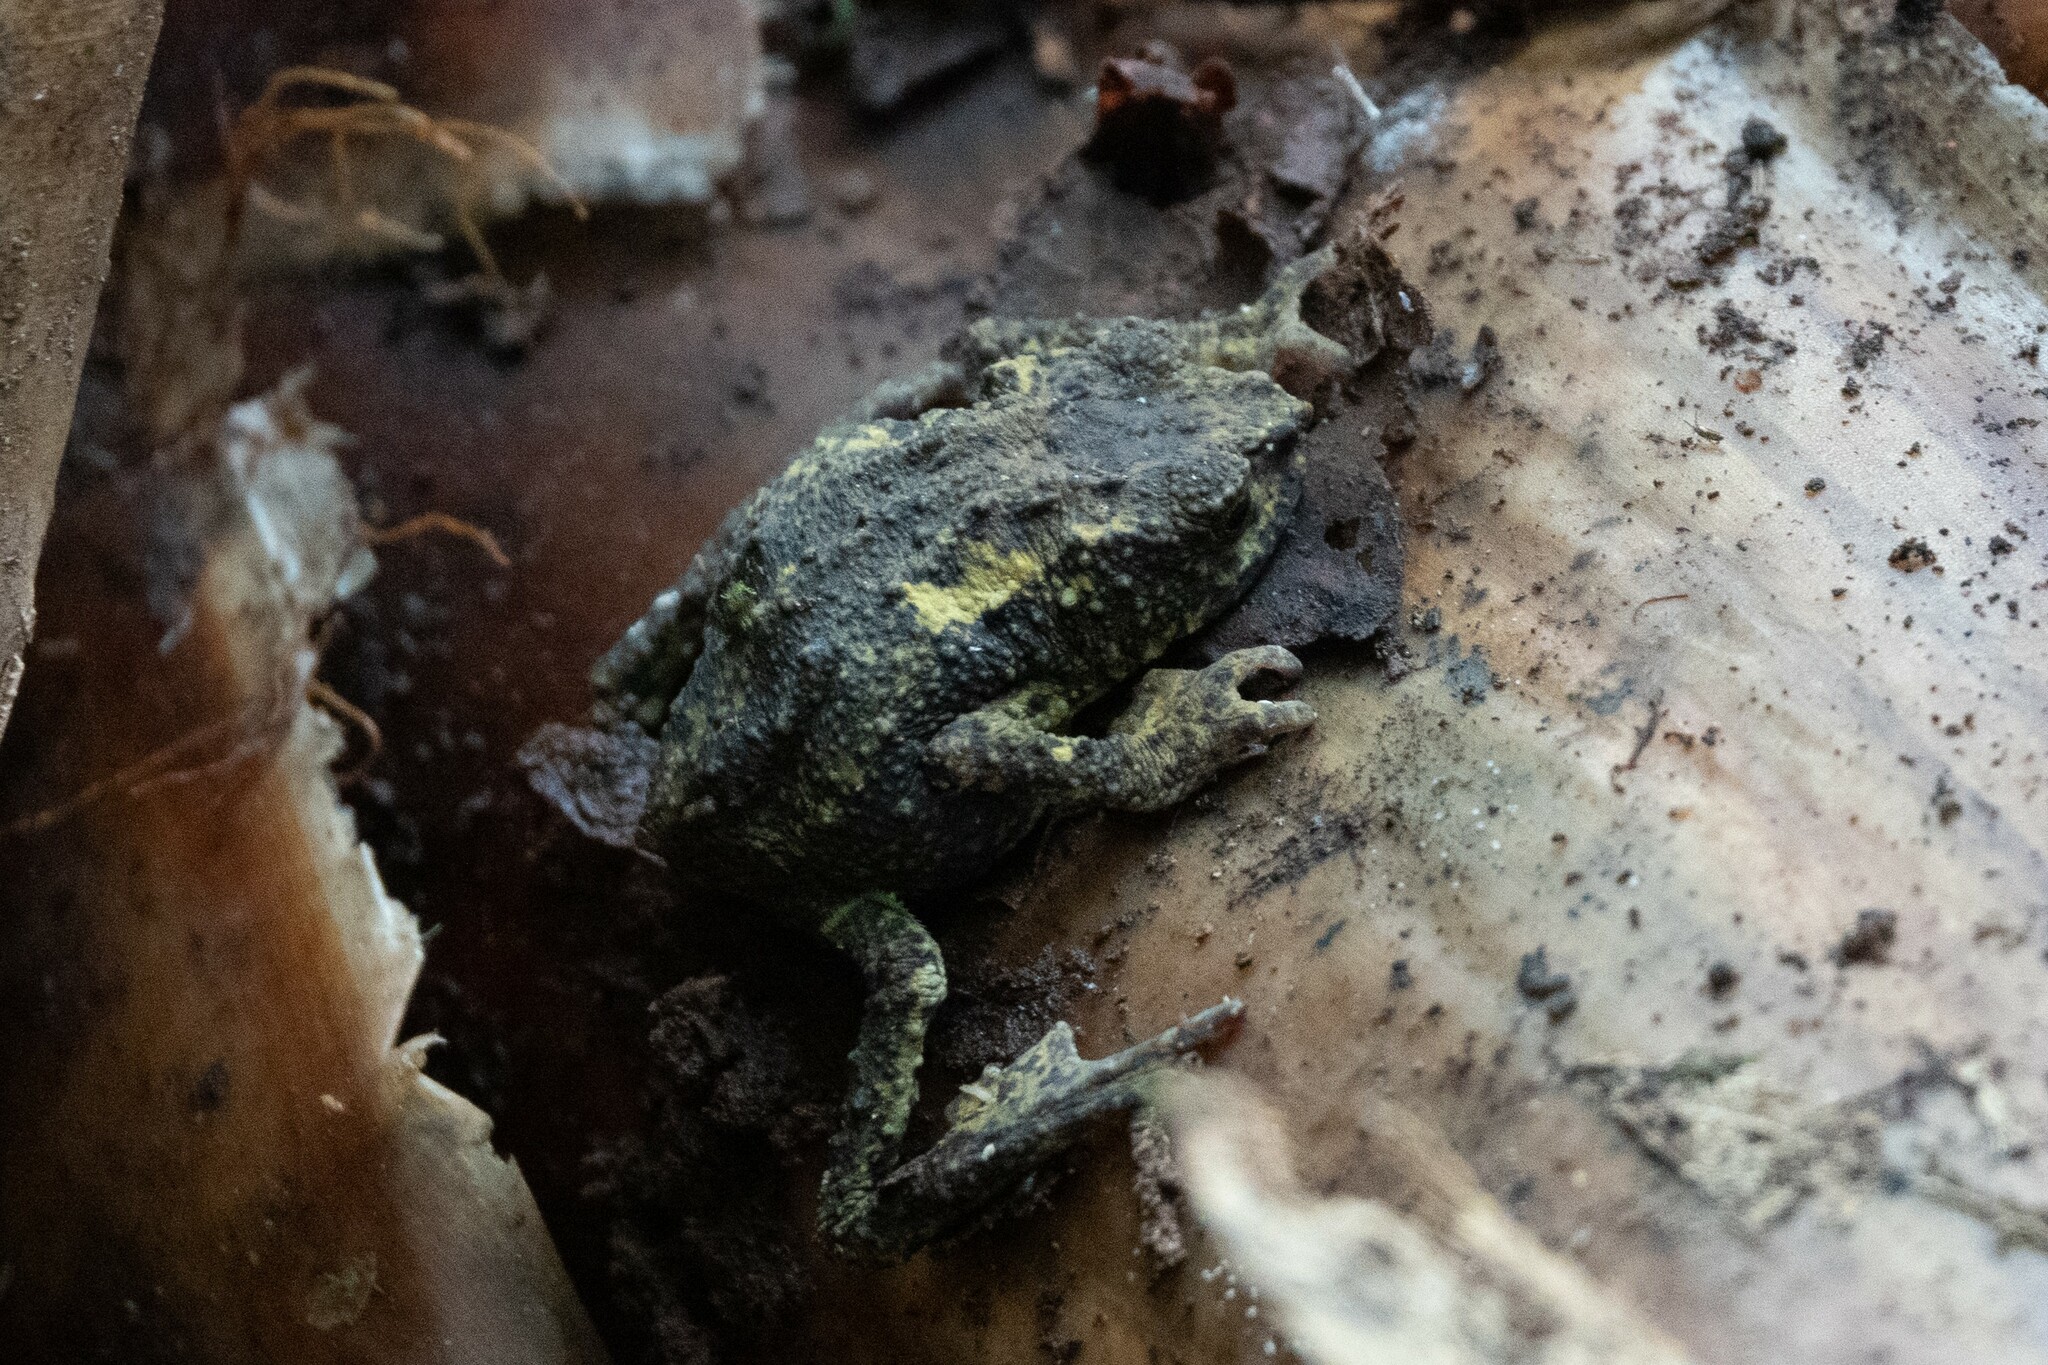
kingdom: Animalia
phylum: Chordata
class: Amphibia
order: Anura
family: Bufonidae
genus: Osornophryne
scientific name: Osornophryne guacamayo
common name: Guacamayo plump toad
